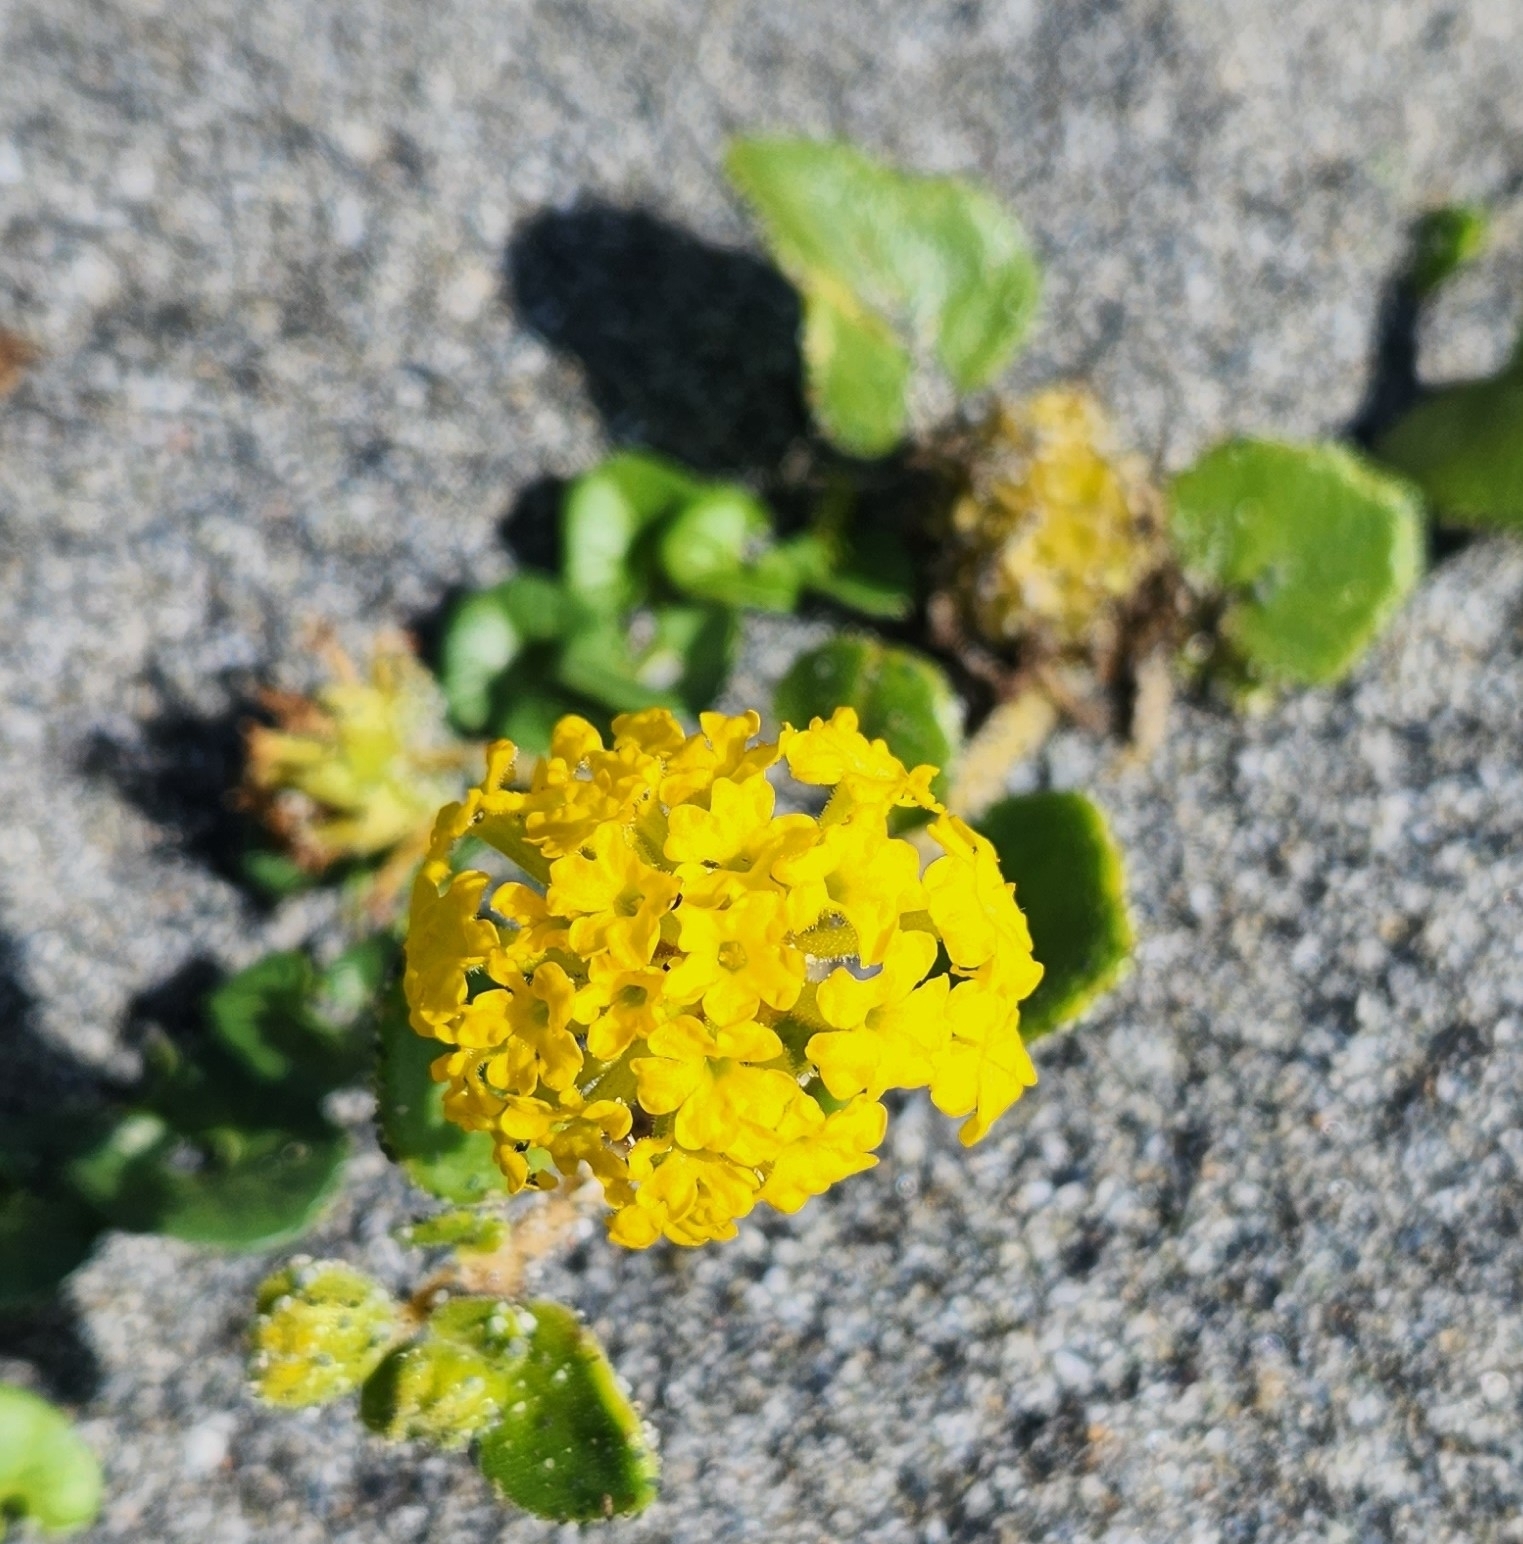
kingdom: Plantae
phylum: Tracheophyta
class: Magnoliopsida
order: Caryophyllales
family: Nyctaginaceae
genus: Abronia
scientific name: Abronia latifolia
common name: Yellow sand-verbena
